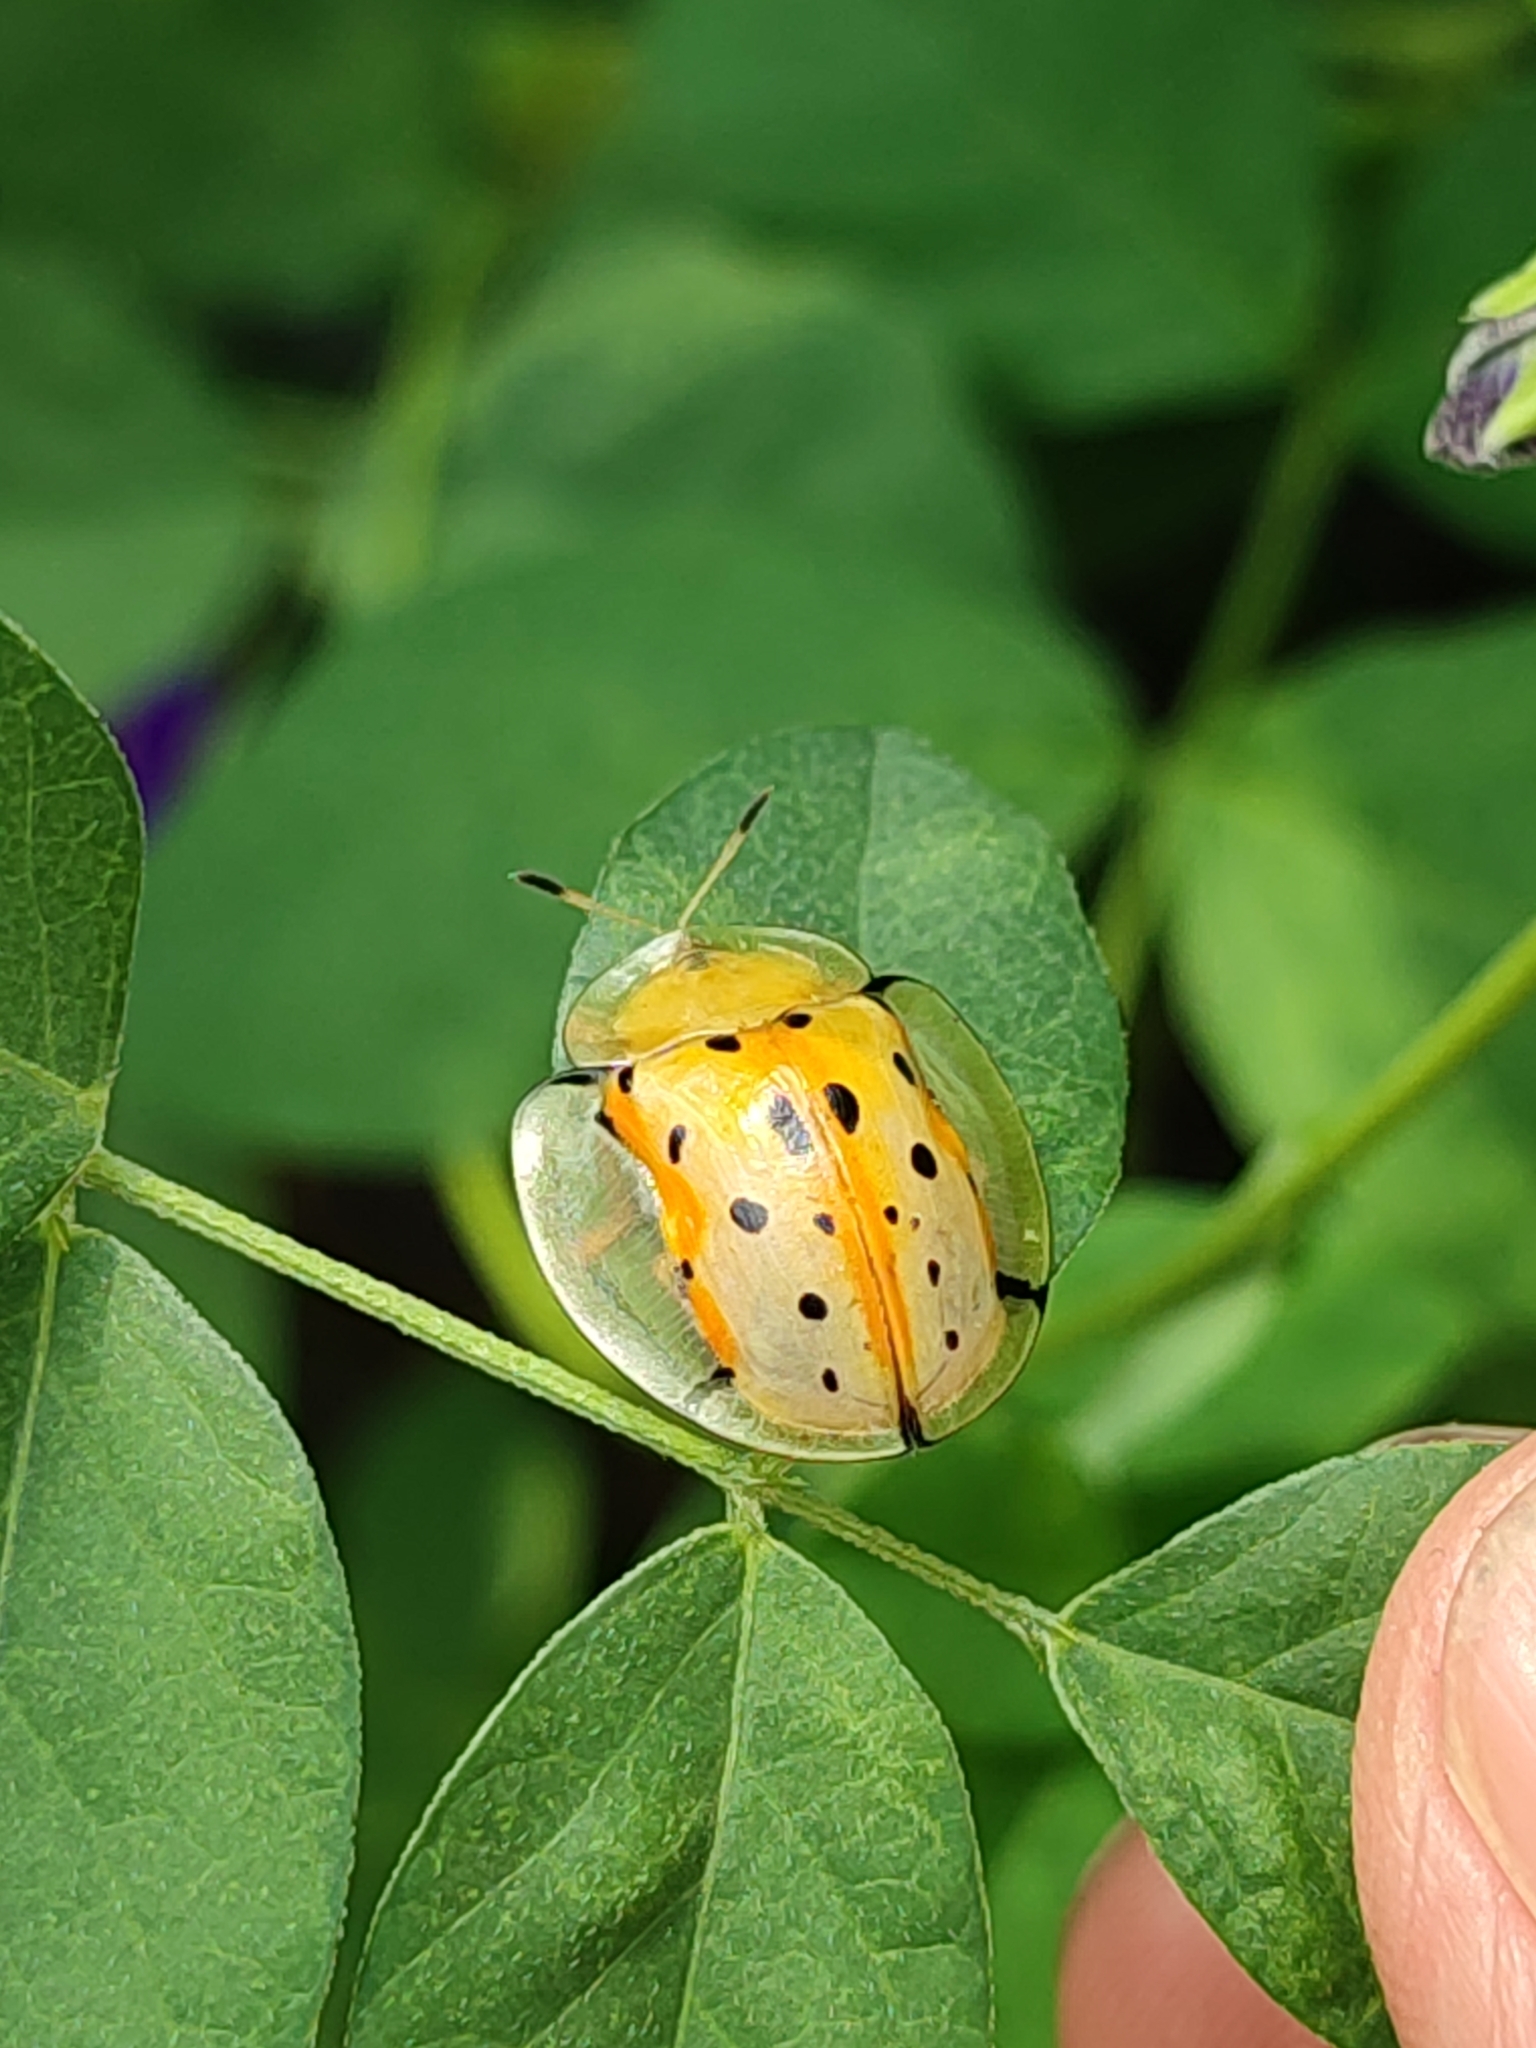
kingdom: Animalia
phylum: Arthropoda
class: Insecta
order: Coleoptera
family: Chrysomelidae
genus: Aspidimorpha
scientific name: Aspidimorpha miliaris
